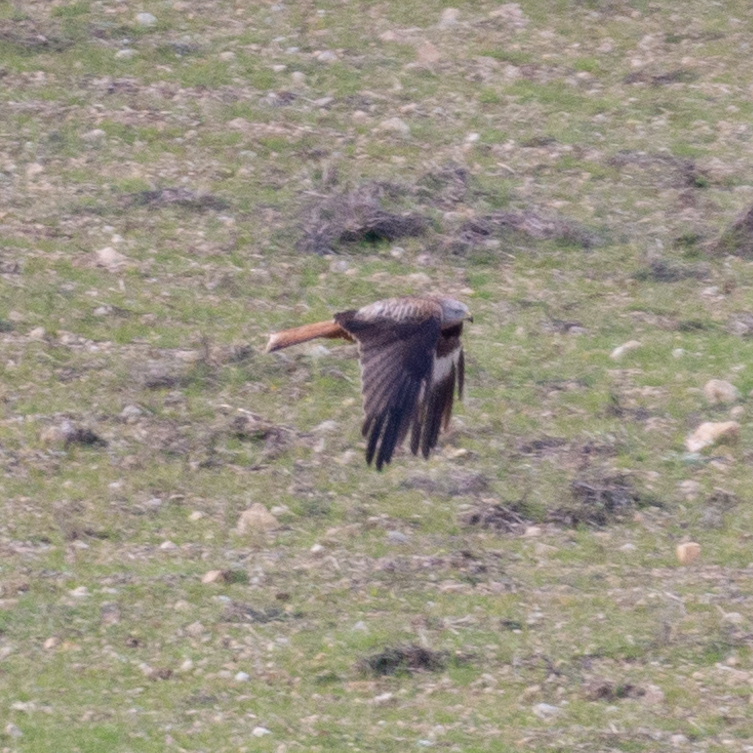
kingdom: Animalia
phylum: Chordata
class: Aves
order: Accipitriformes
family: Accipitridae
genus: Milvus
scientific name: Milvus milvus
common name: Red kite
